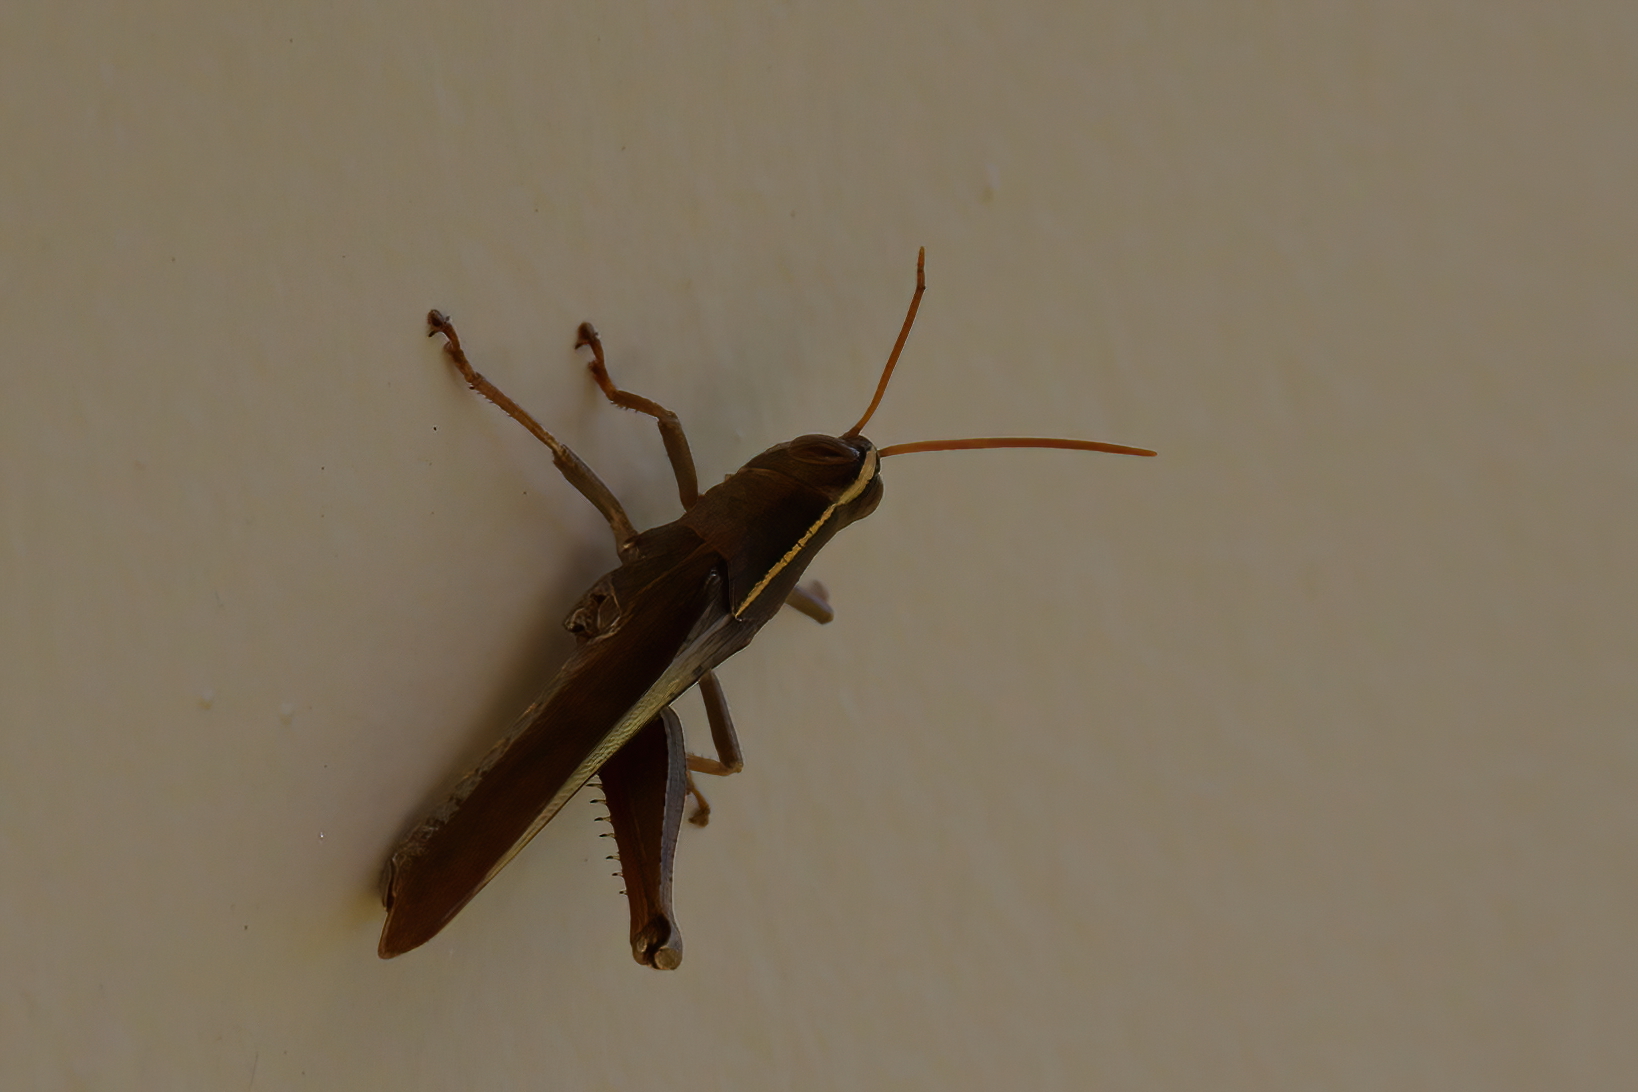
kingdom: Animalia
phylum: Arthropoda
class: Insecta
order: Orthoptera
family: Acrididae
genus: Schistocerca
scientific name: Schistocerca damnifica
